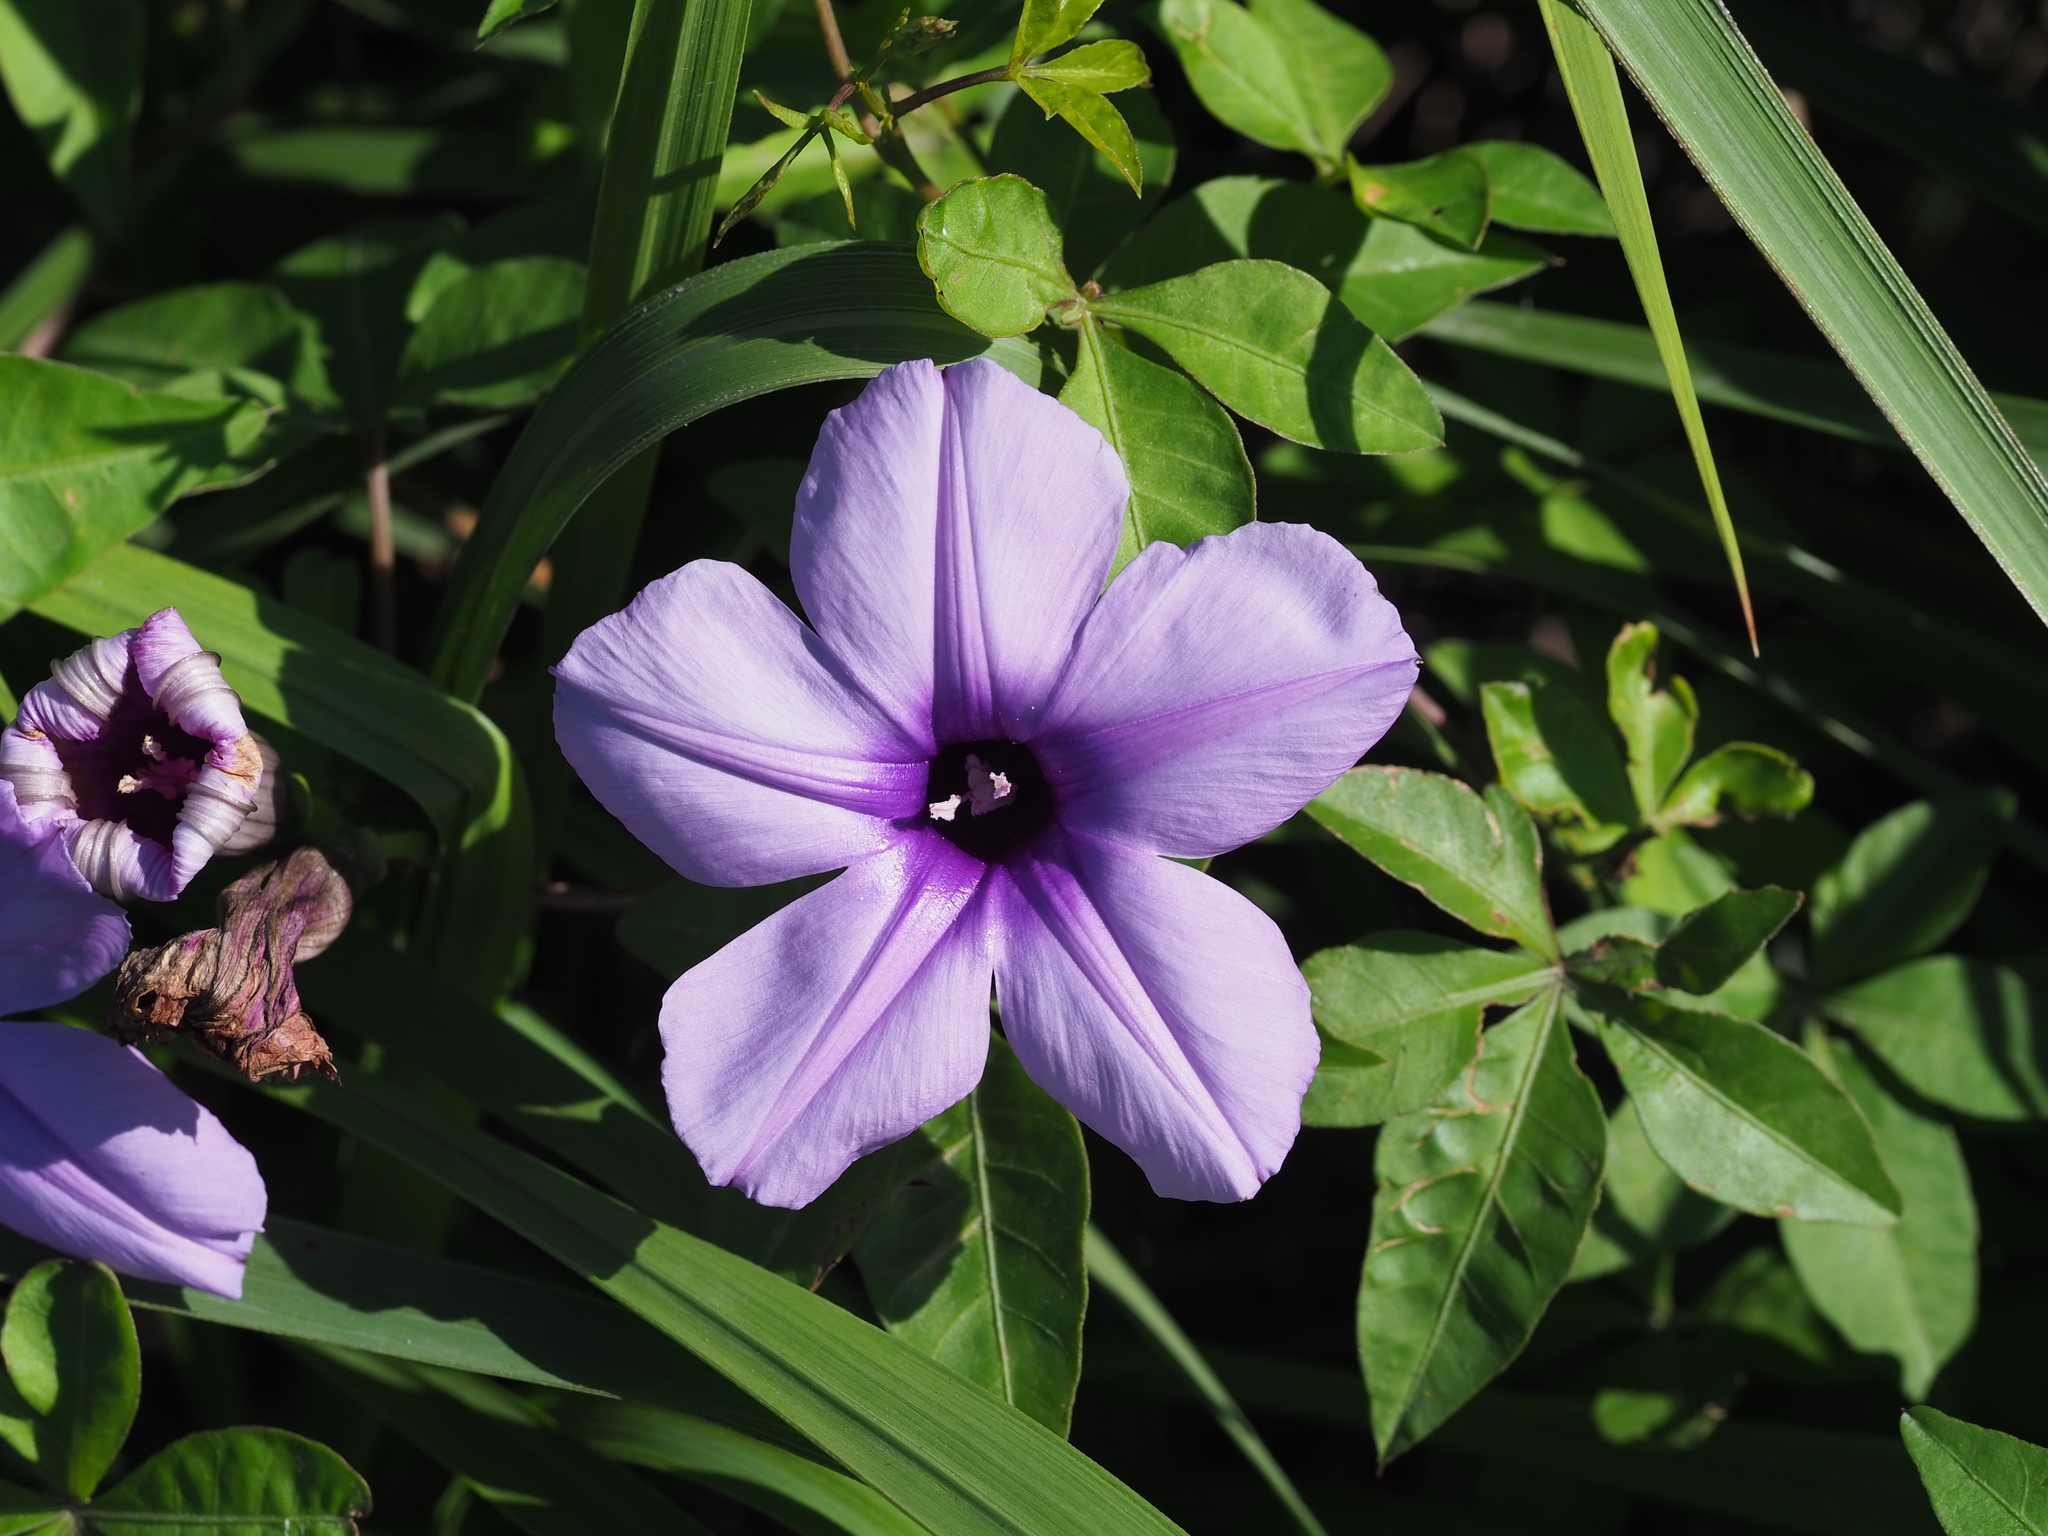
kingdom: Plantae
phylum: Tracheophyta
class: Magnoliopsida
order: Solanales
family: Convolvulaceae
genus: Ipomoea
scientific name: Ipomoea cairica
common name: Mile a minute vine
